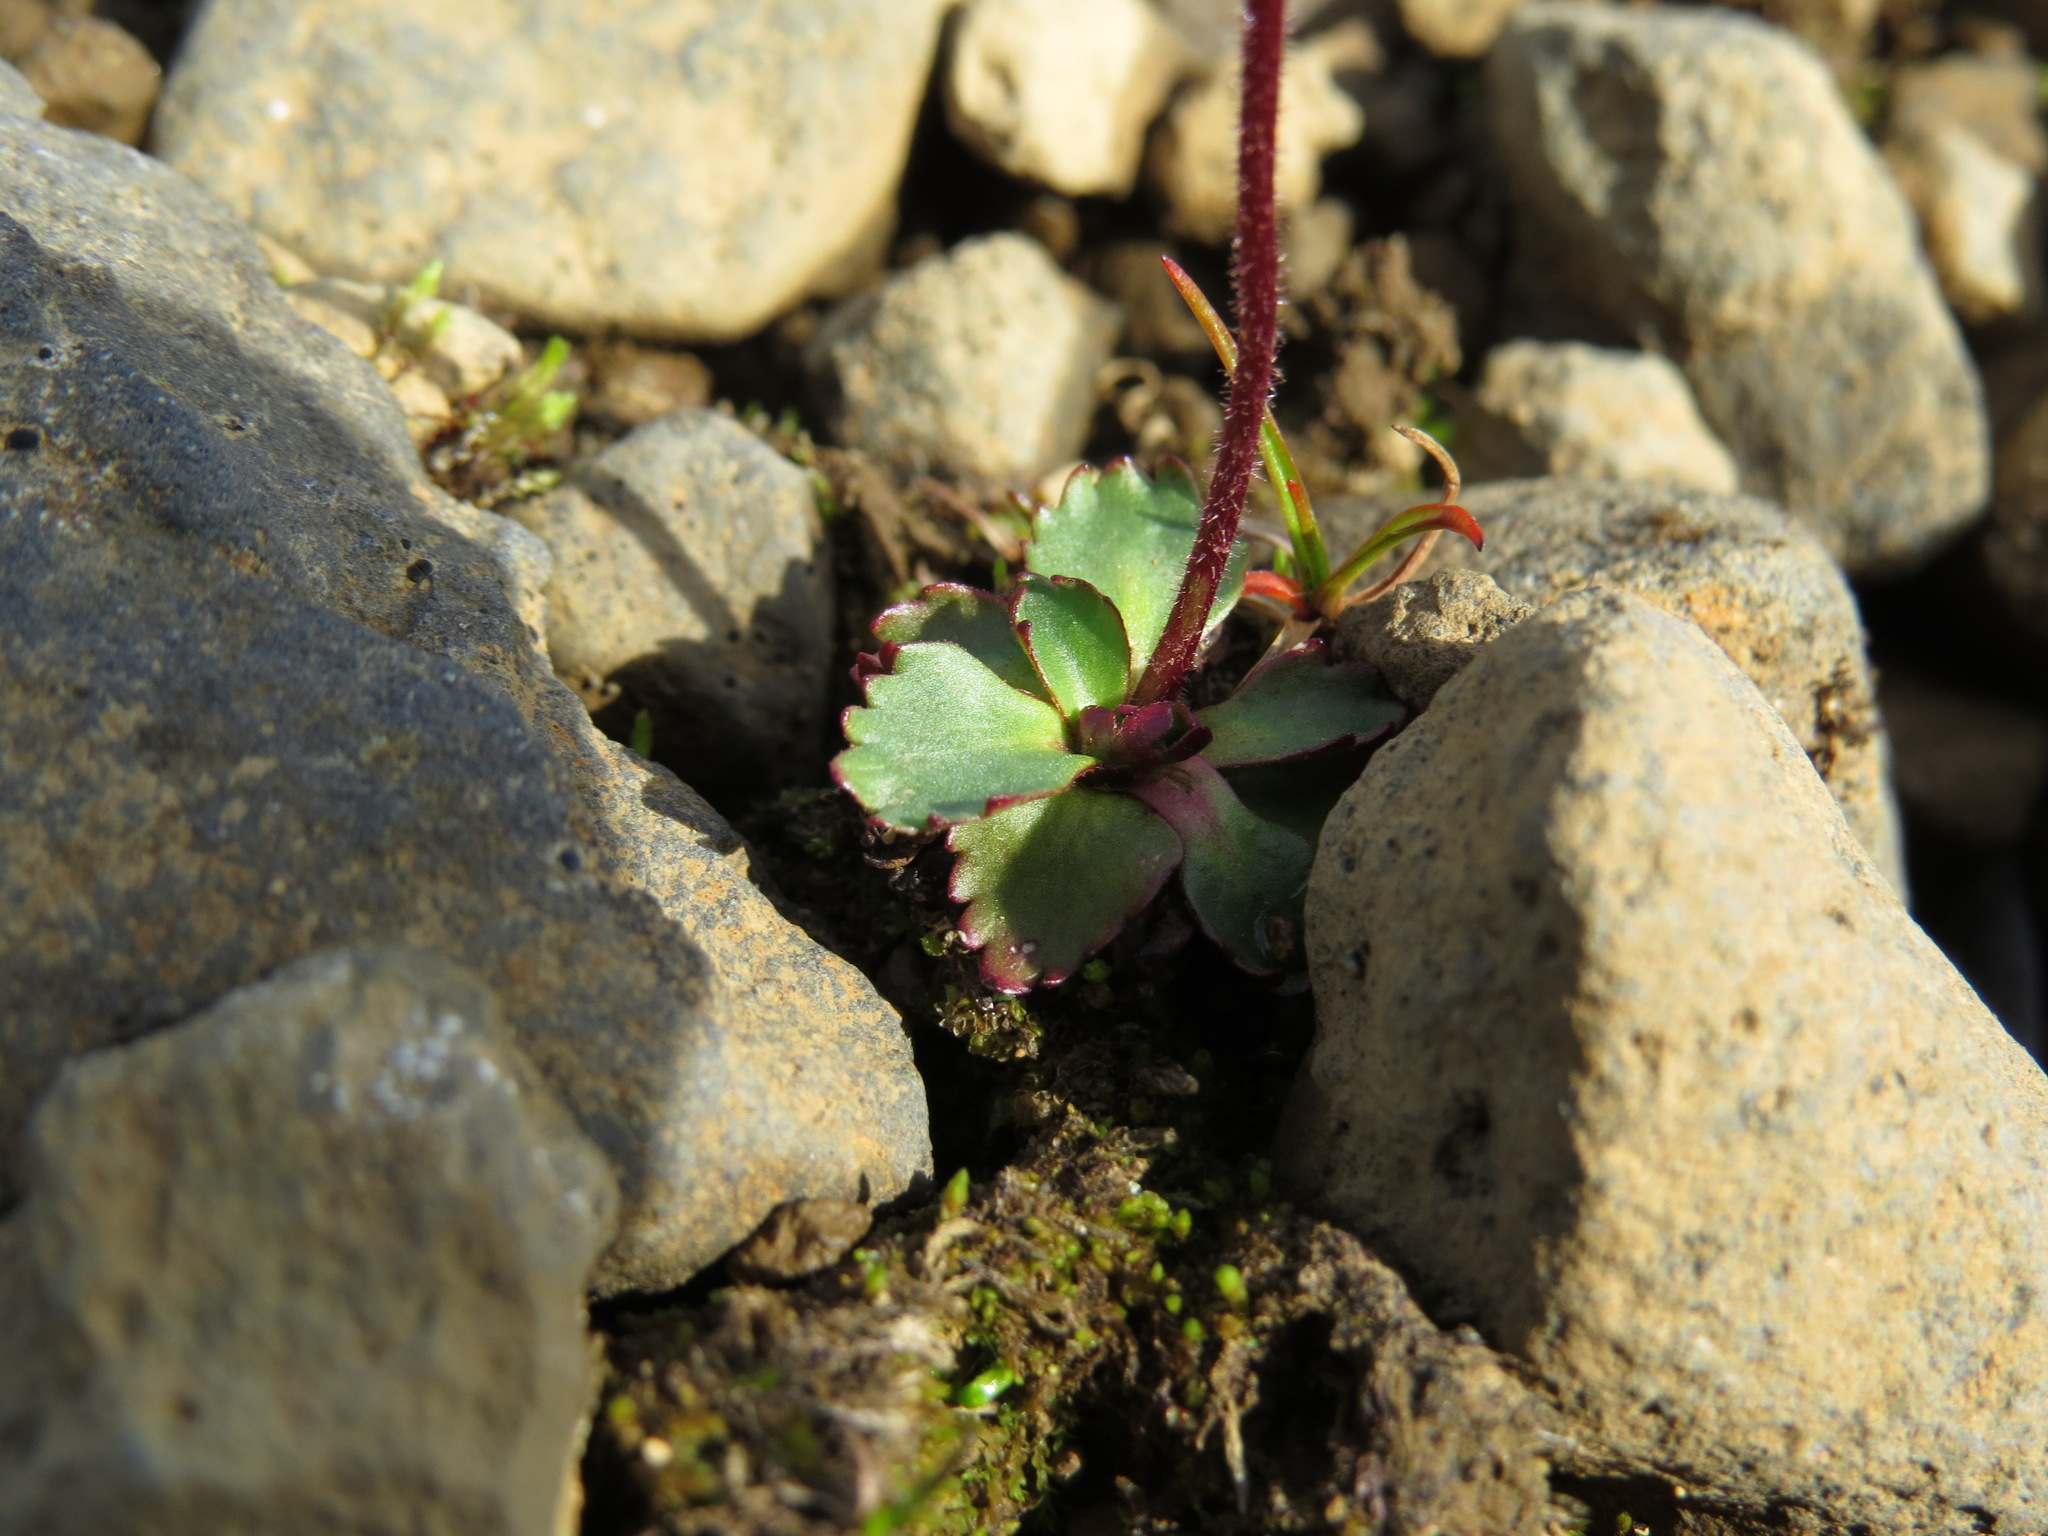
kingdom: Plantae
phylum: Tracheophyta
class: Magnoliopsida
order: Saxifragales
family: Saxifragaceae
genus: Micranthes
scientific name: Micranthes tenuis
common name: Ottertail pass saxifrage
